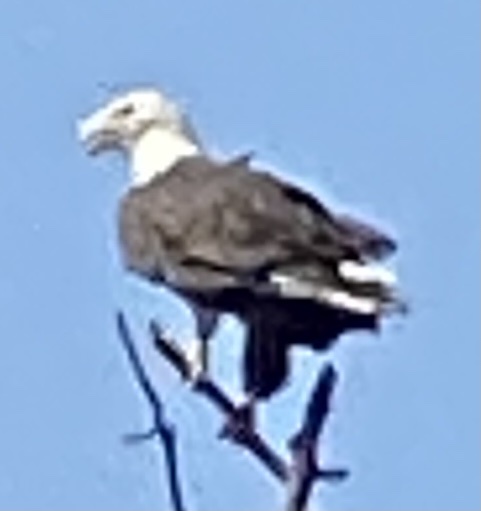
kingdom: Animalia
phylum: Chordata
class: Aves
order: Accipitriformes
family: Accipitridae
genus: Haliaeetus
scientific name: Haliaeetus leucocephalus
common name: Bald eagle
